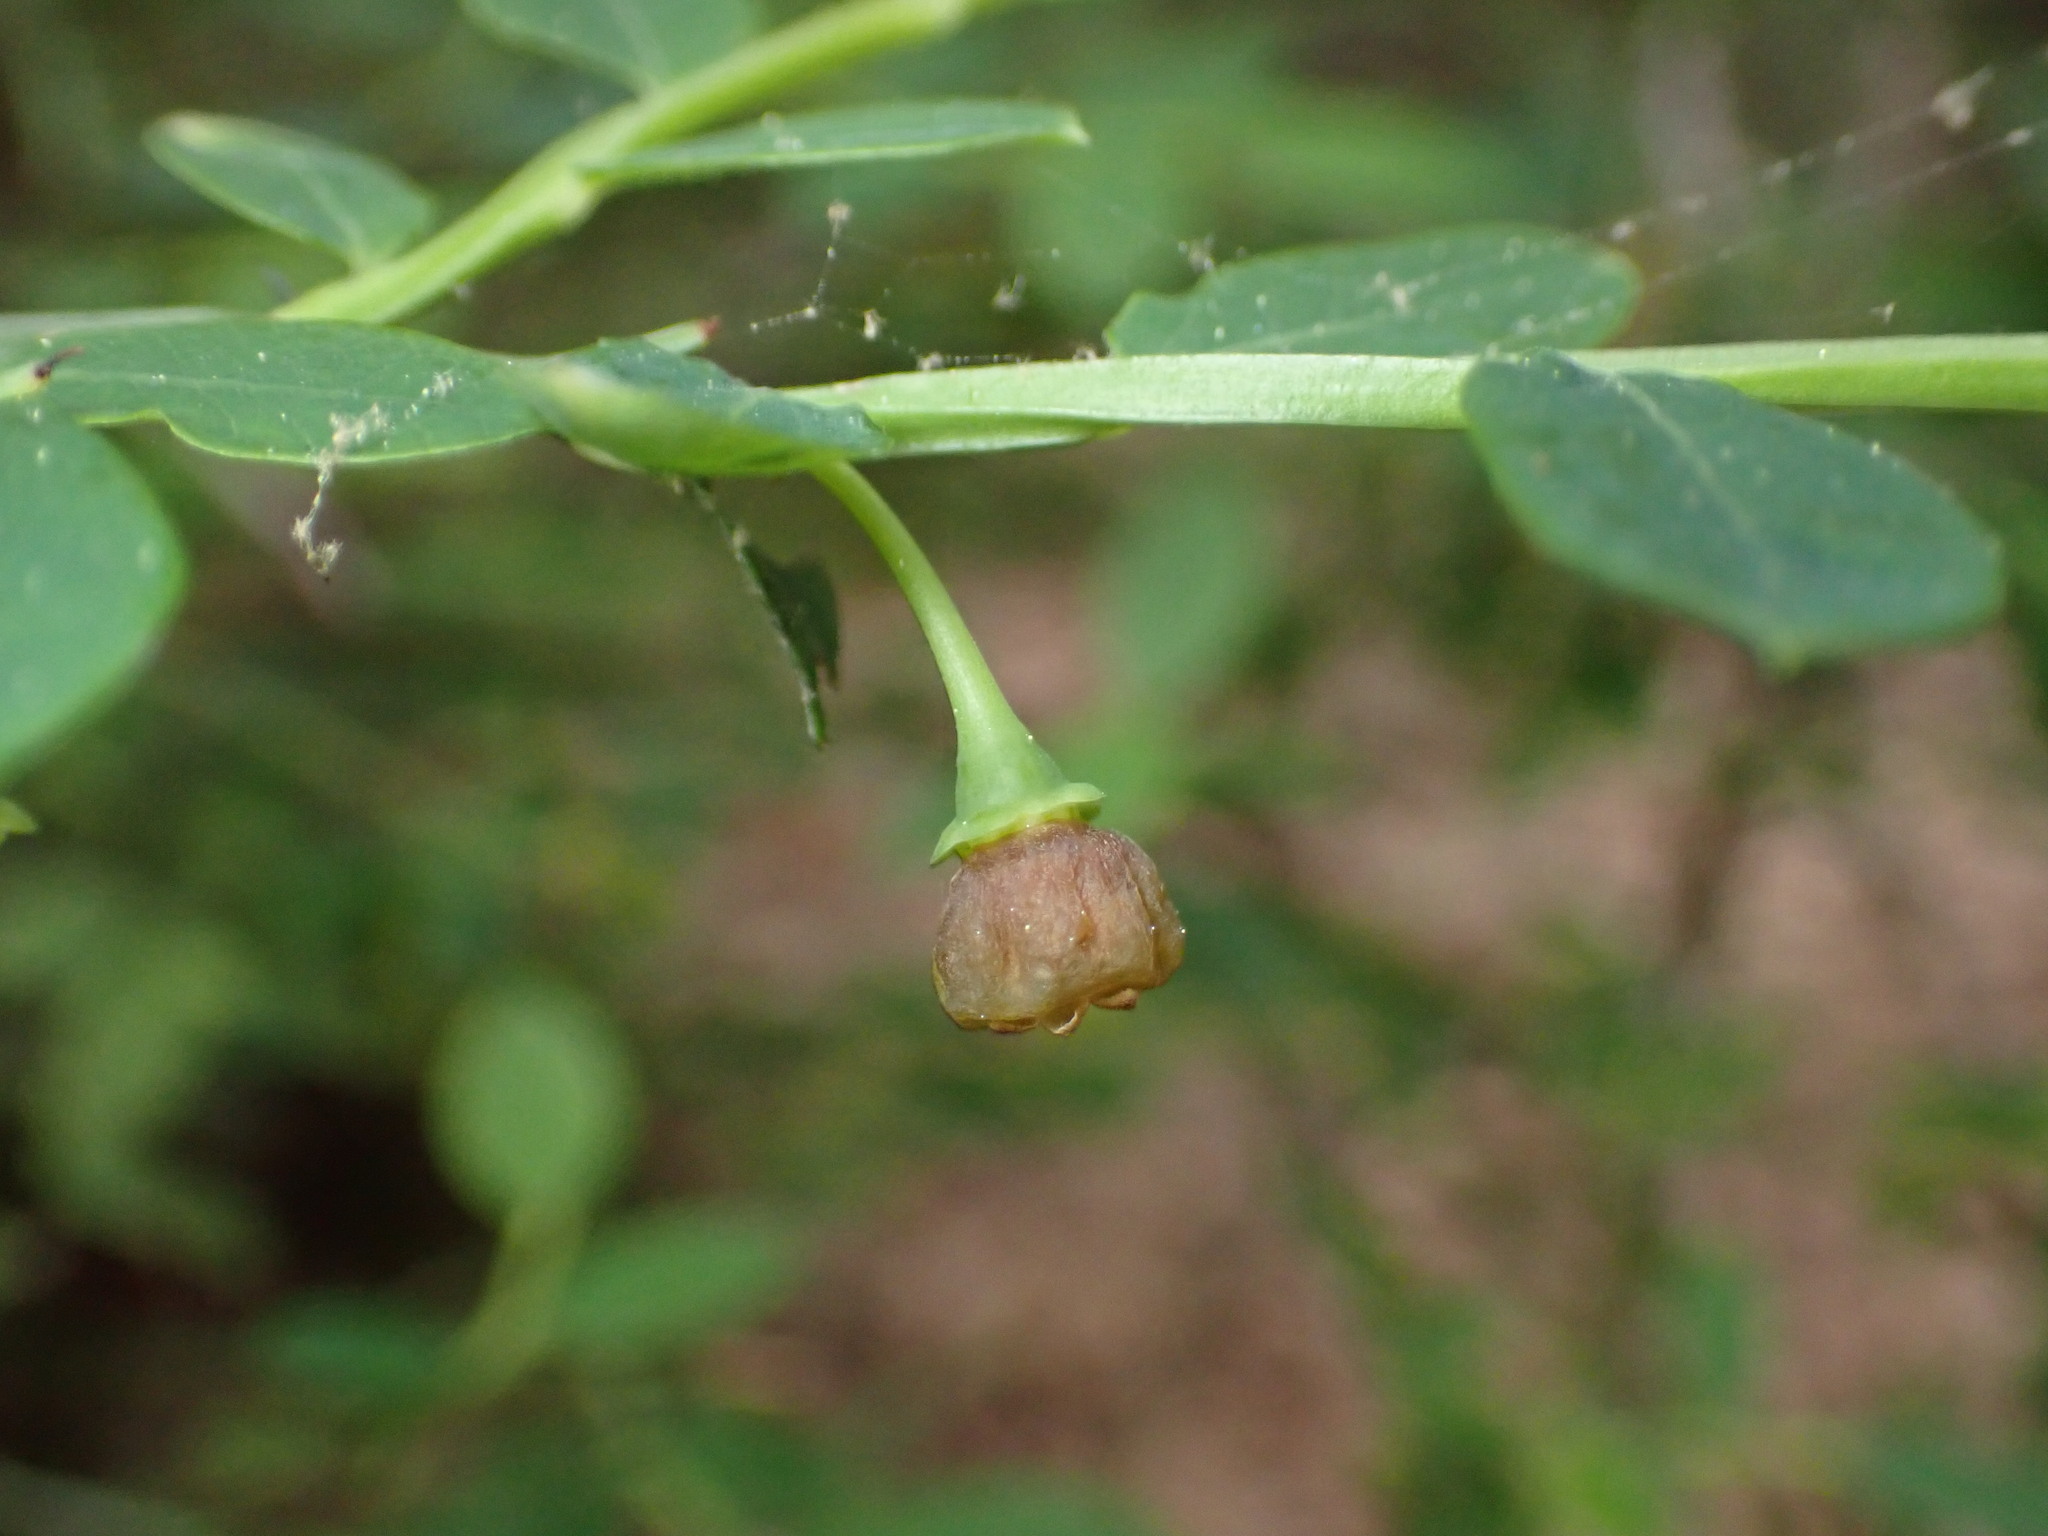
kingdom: Plantae
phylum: Tracheophyta
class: Magnoliopsida
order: Ericales
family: Ericaceae
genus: Vaccinium
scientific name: Vaccinium parvifolium
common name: Red-huckleberry
